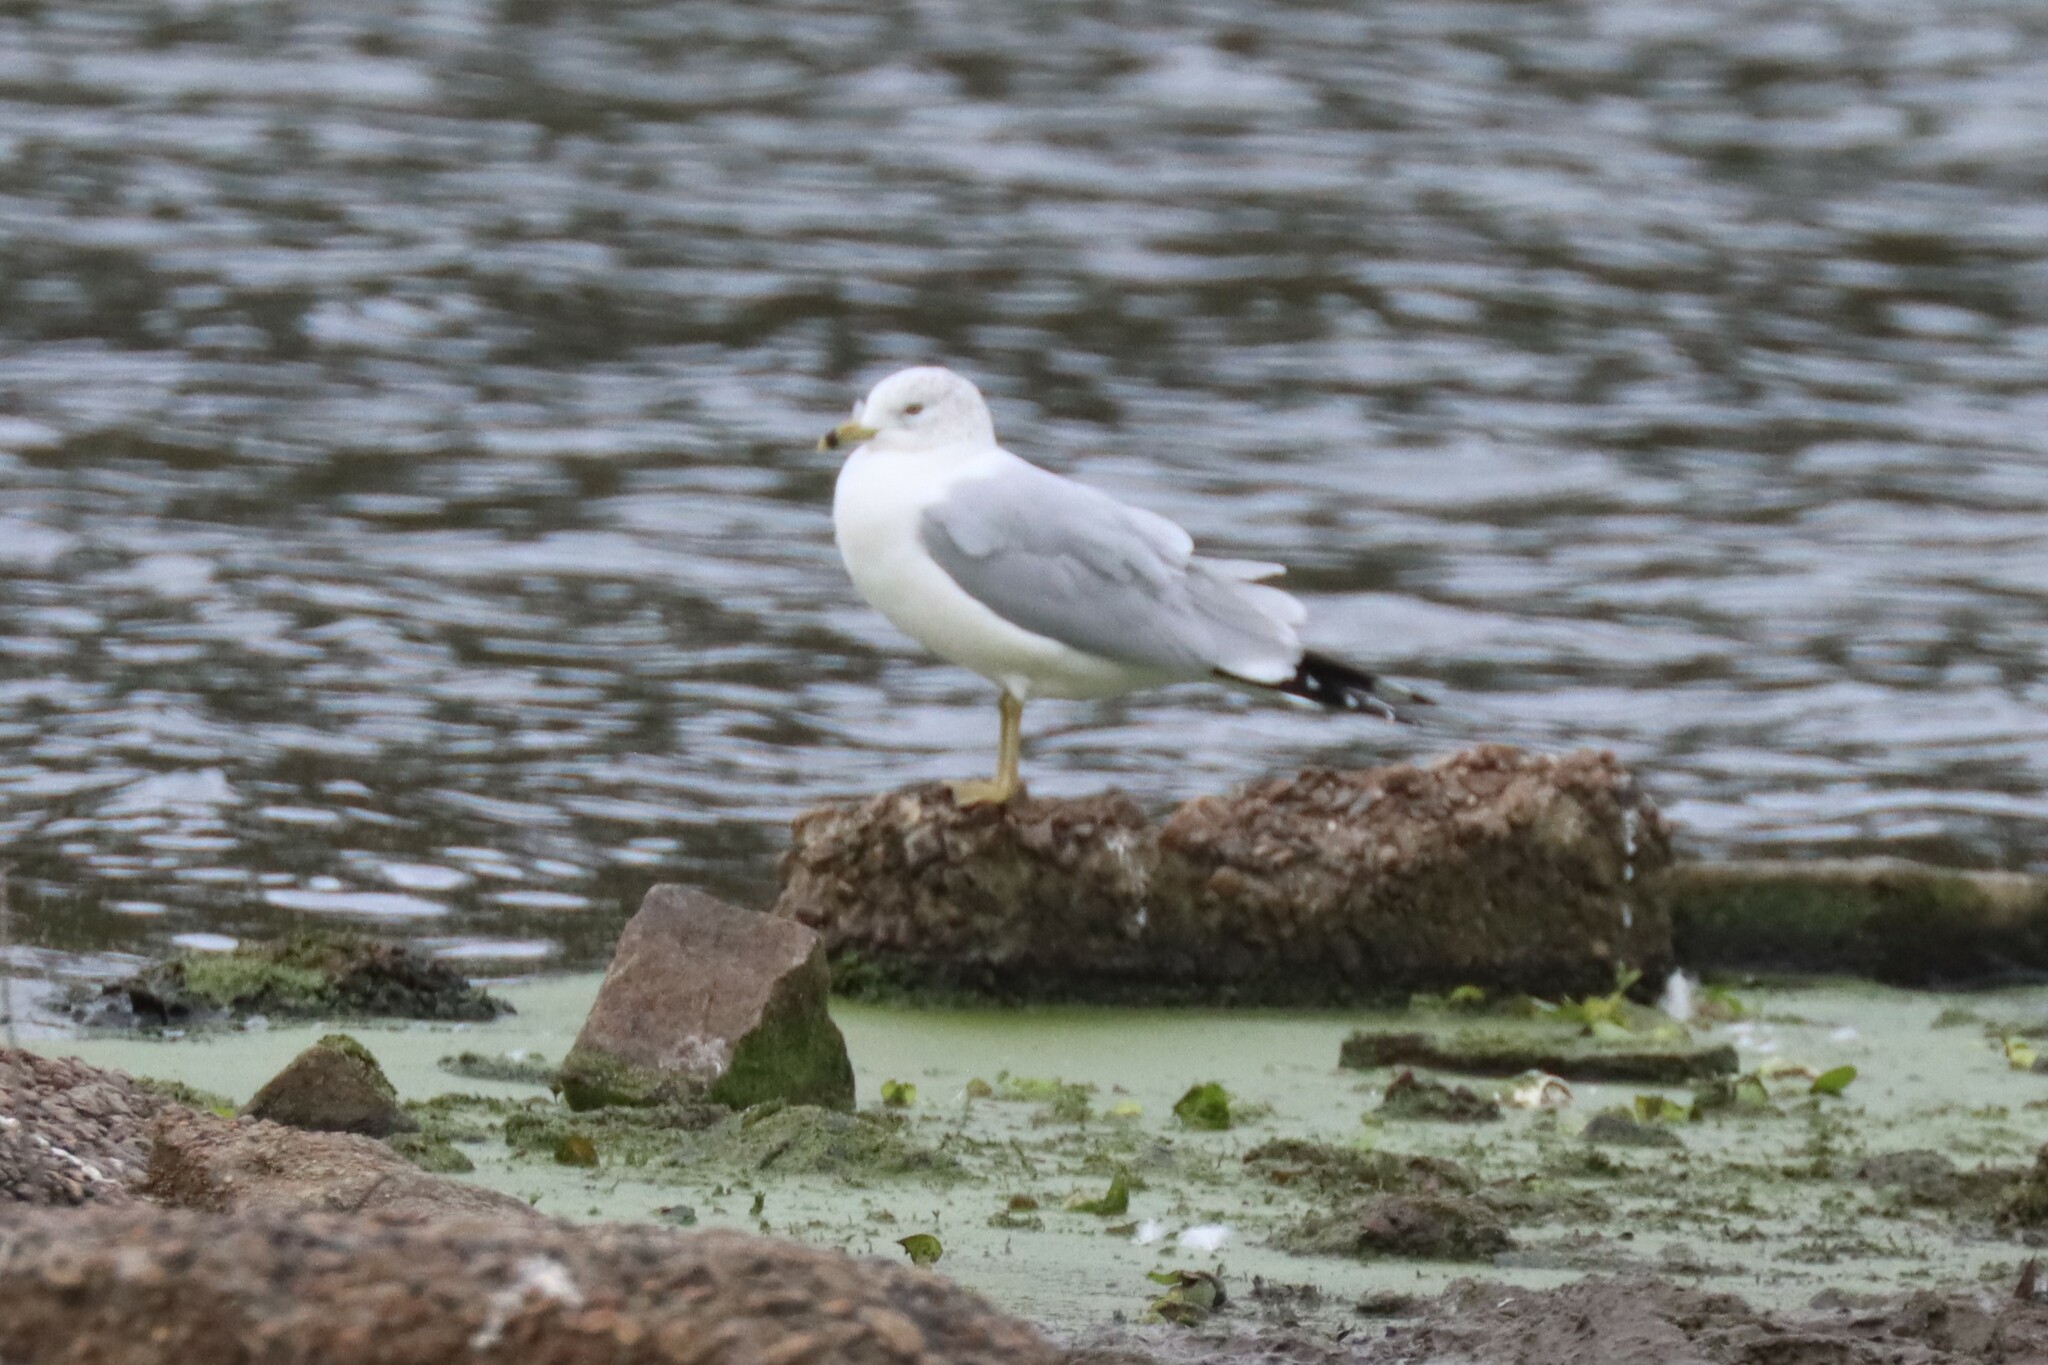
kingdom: Animalia
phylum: Chordata
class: Aves
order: Charadriiformes
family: Laridae
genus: Larus
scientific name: Larus delawarensis
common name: Ring-billed gull
